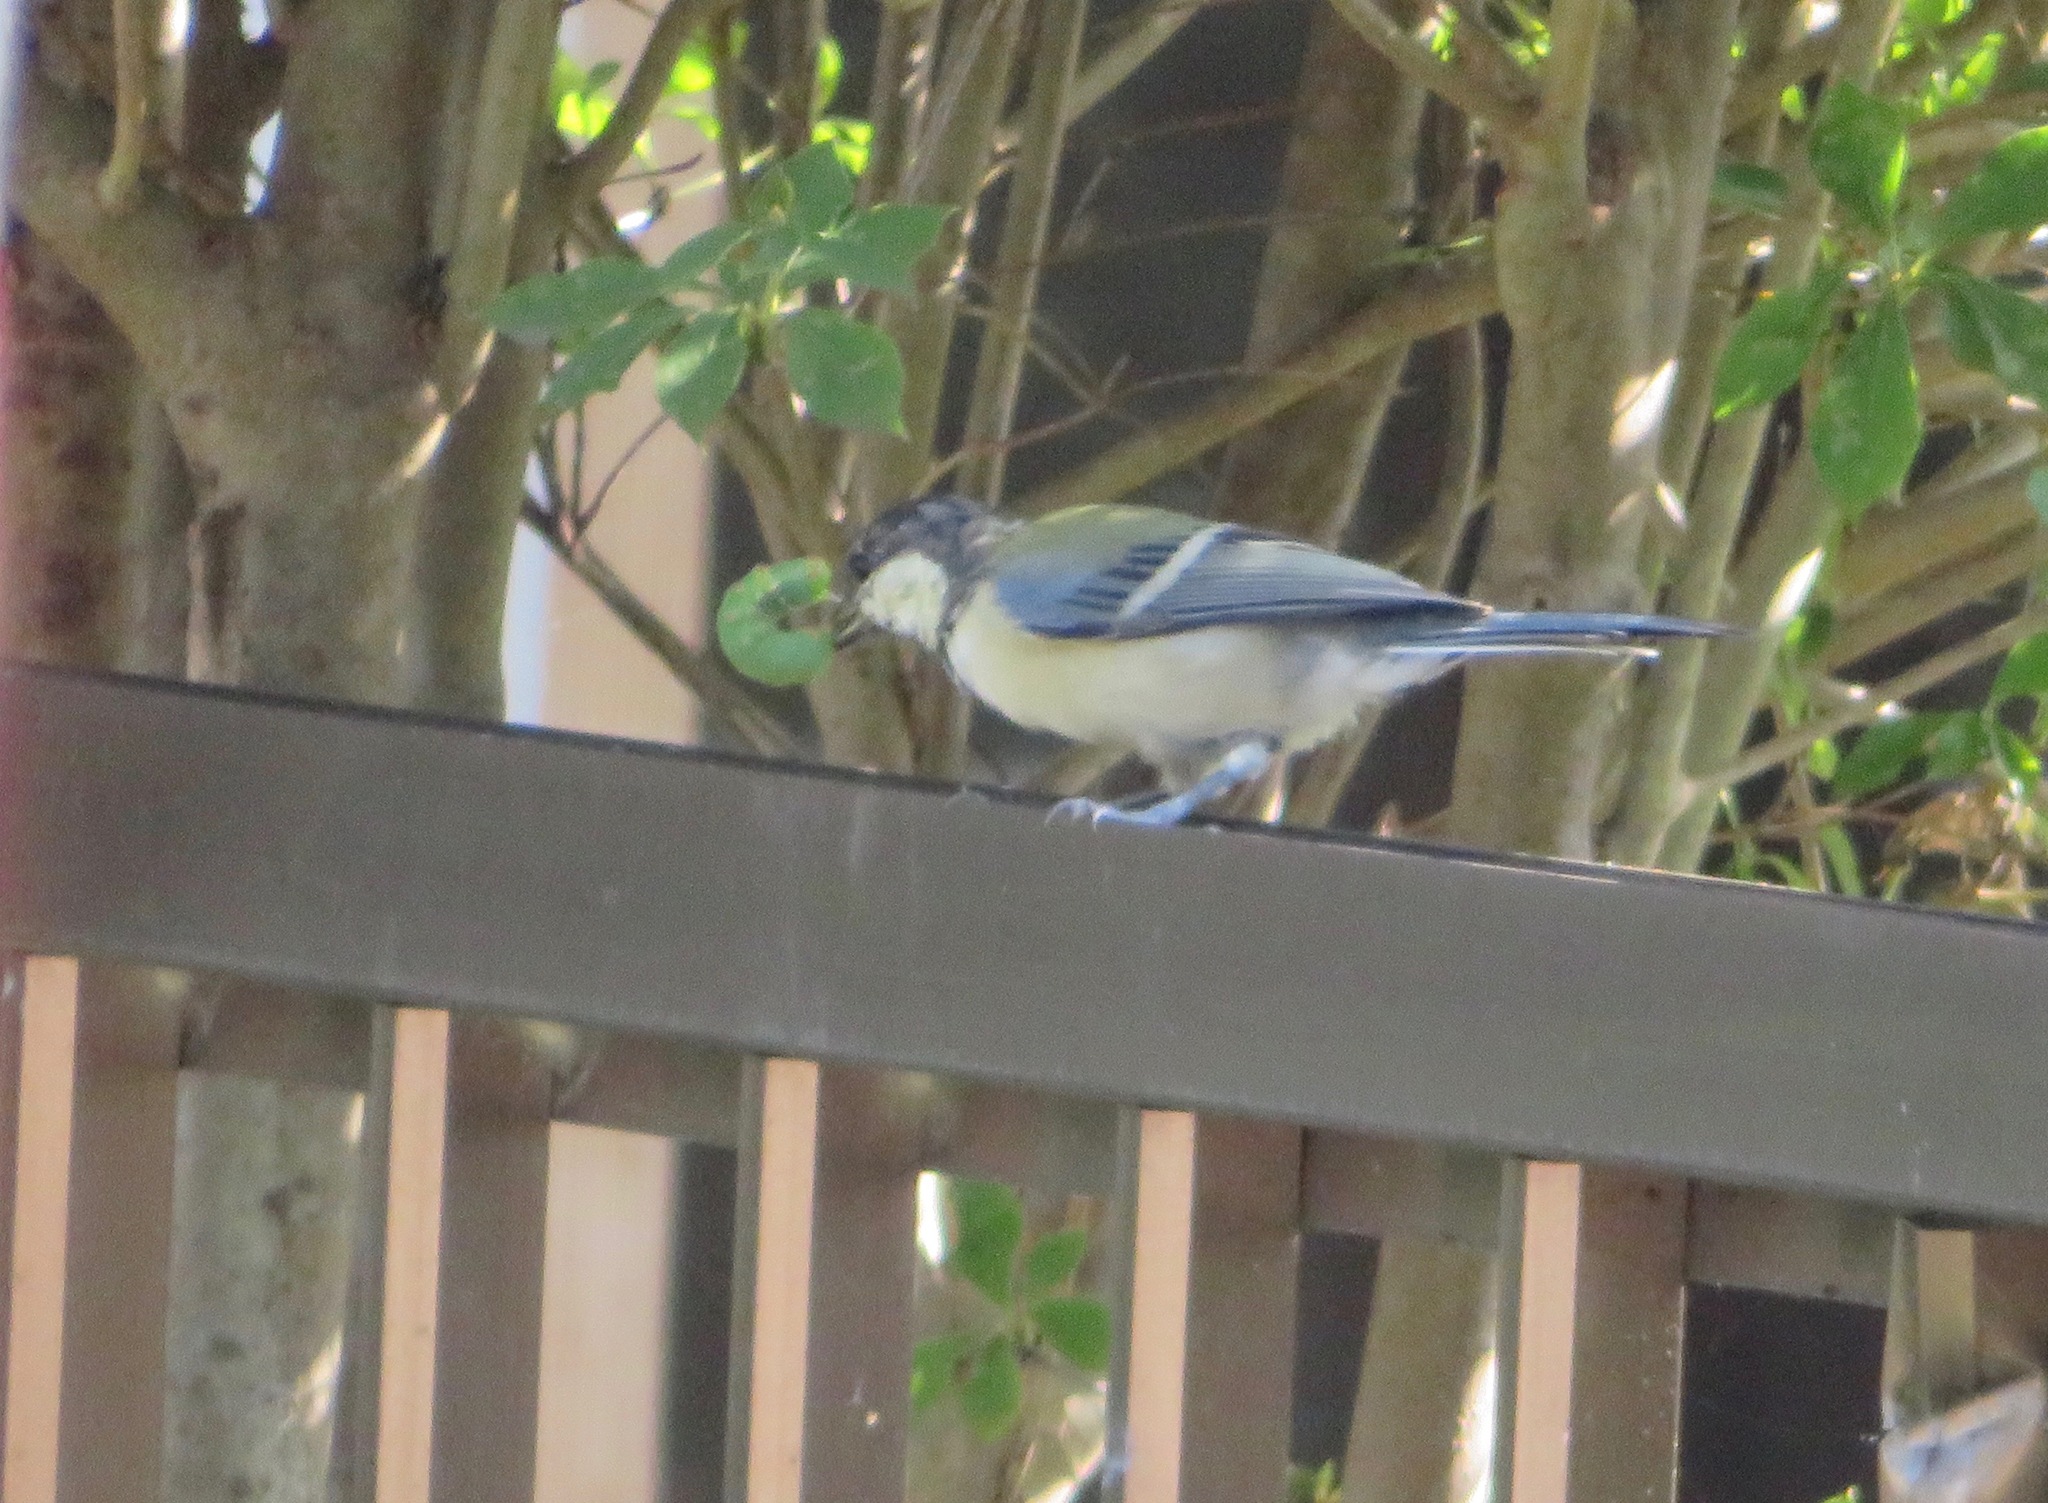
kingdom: Animalia
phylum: Chordata
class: Aves
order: Passeriformes
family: Paridae
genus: Parus
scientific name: Parus minor
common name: Japanese tit
